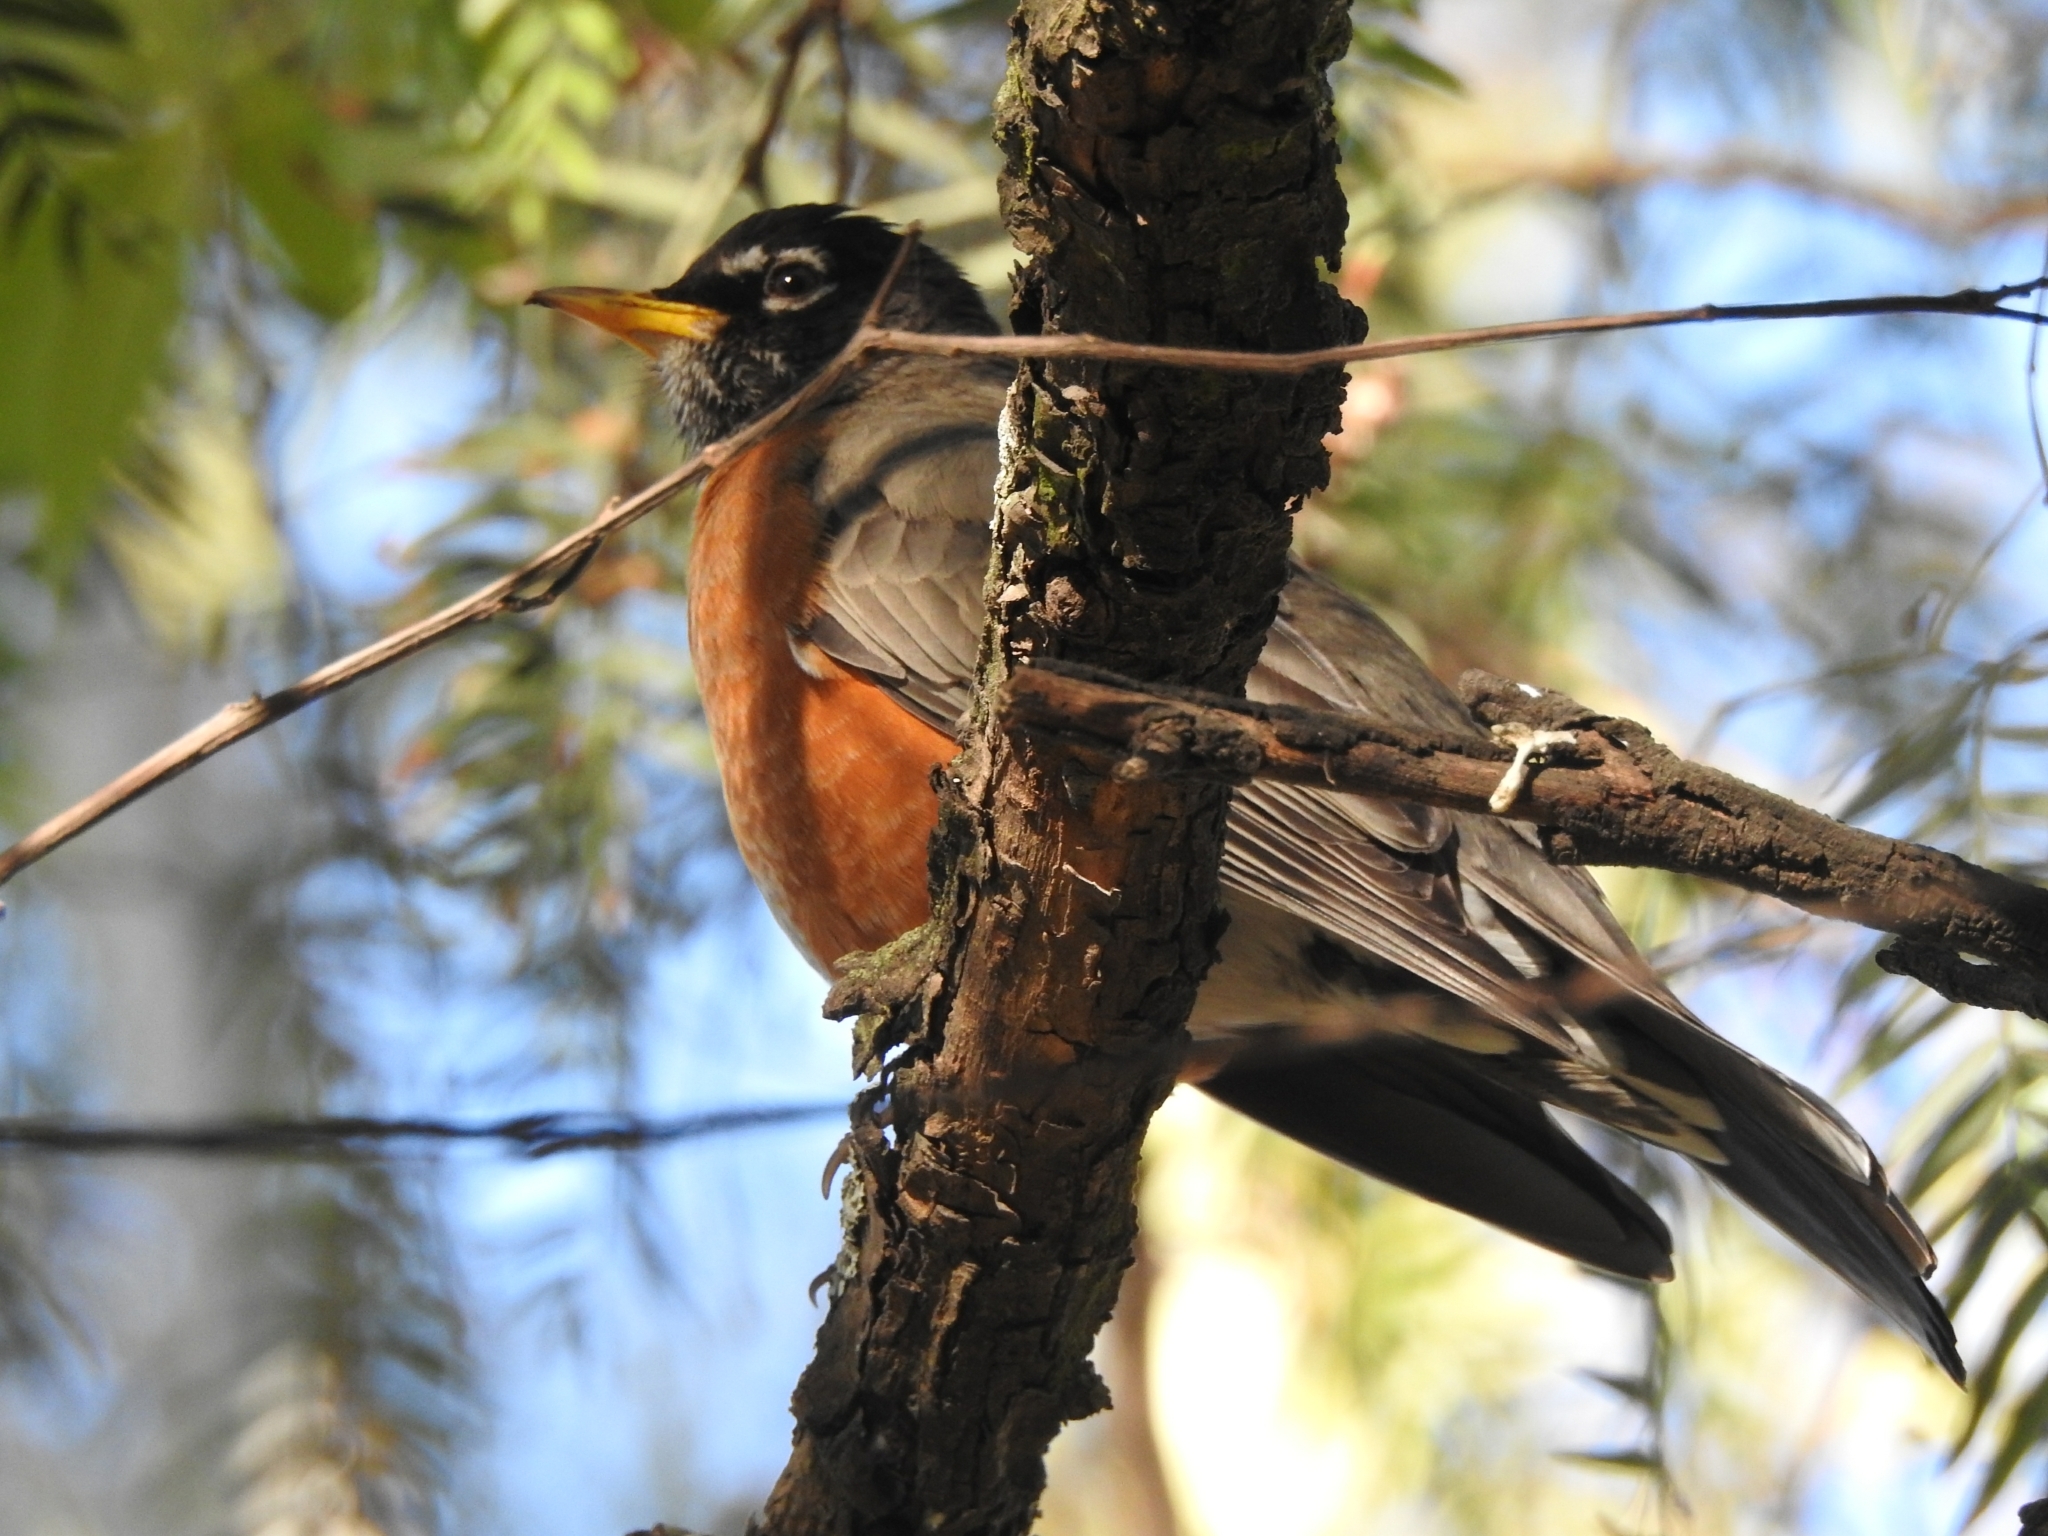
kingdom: Animalia
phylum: Chordata
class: Aves
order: Passeriformes
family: Turdidae
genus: Turdus
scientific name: Turdus migratorius
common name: American robin
